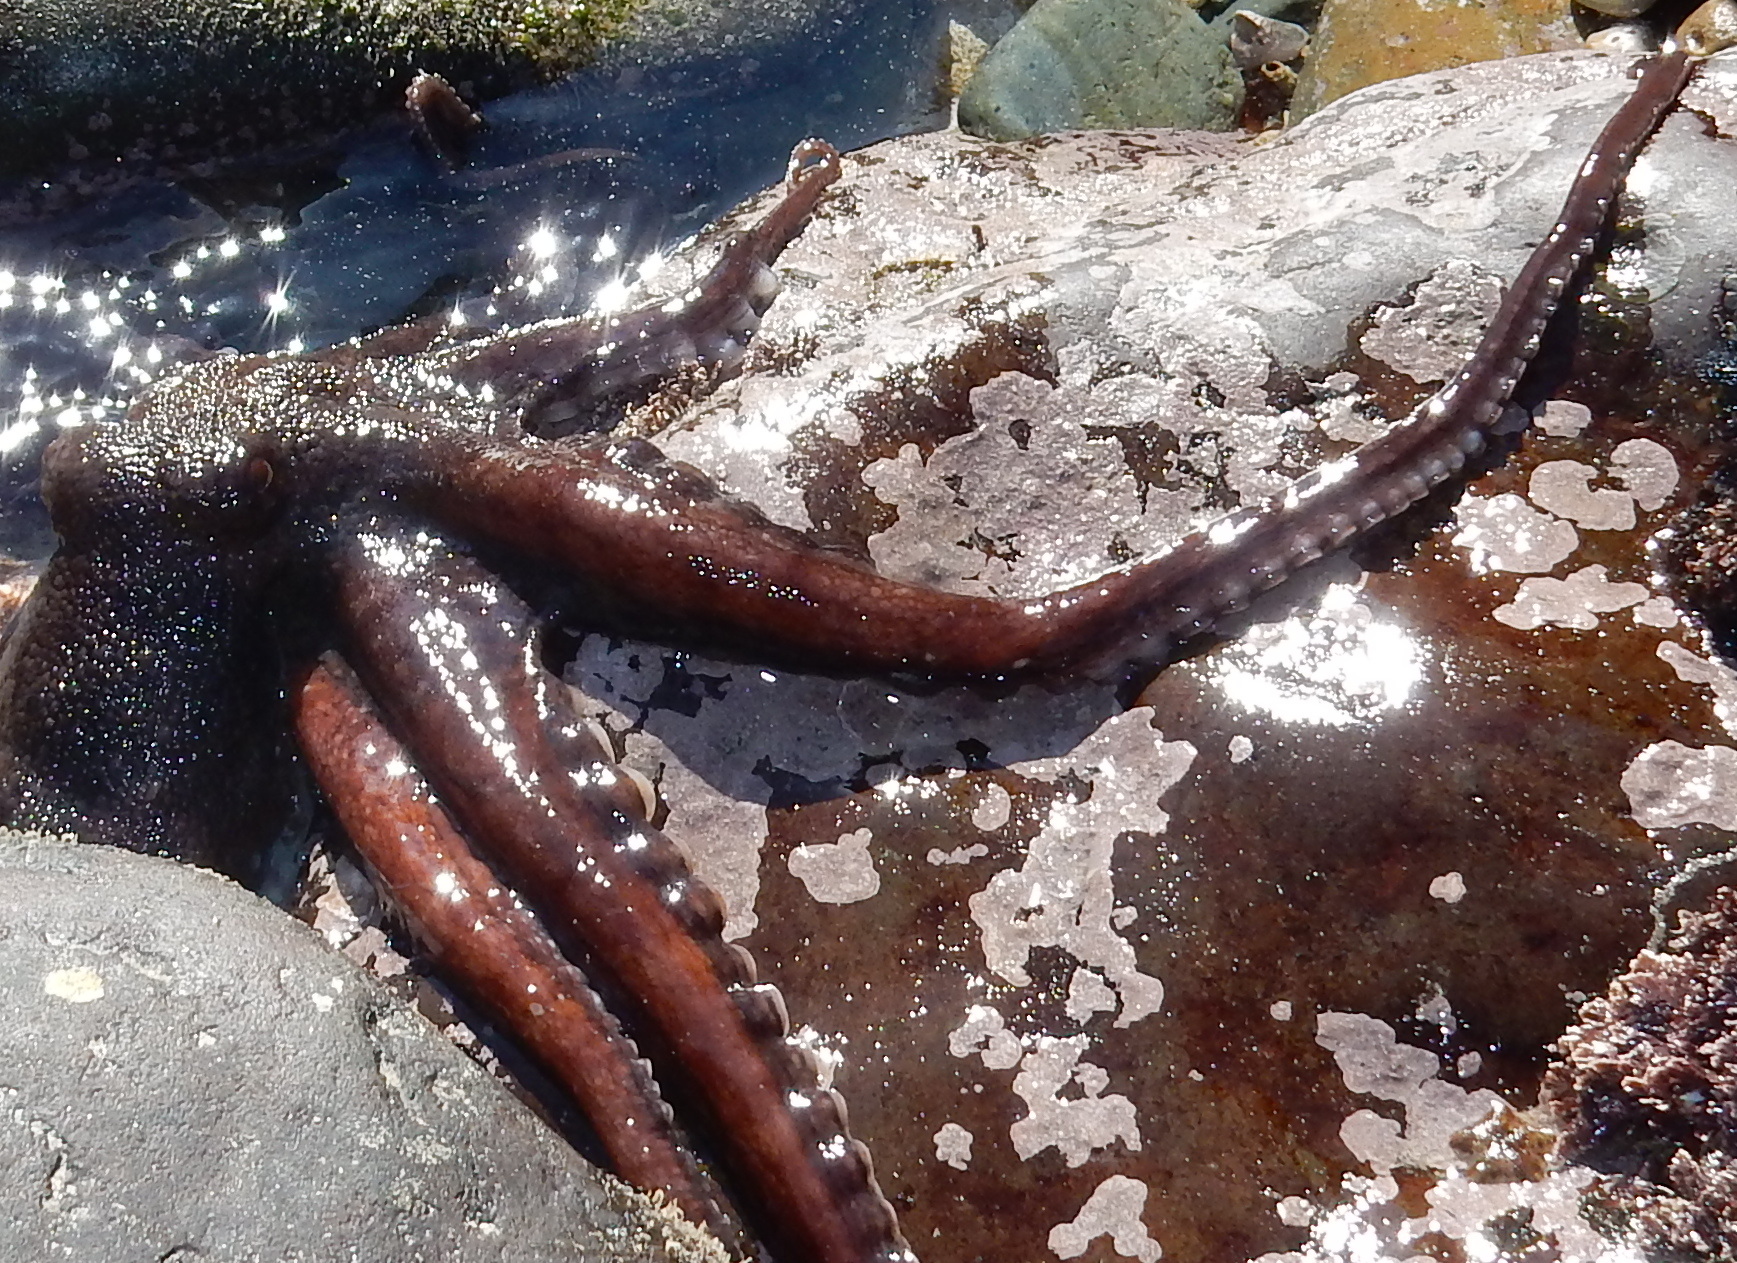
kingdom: Animalia
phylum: Mollusca
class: Cephalopoda
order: Octopoda
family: Octopodidae
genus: Octopus
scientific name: Octopus vulgaris
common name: Common octopus
